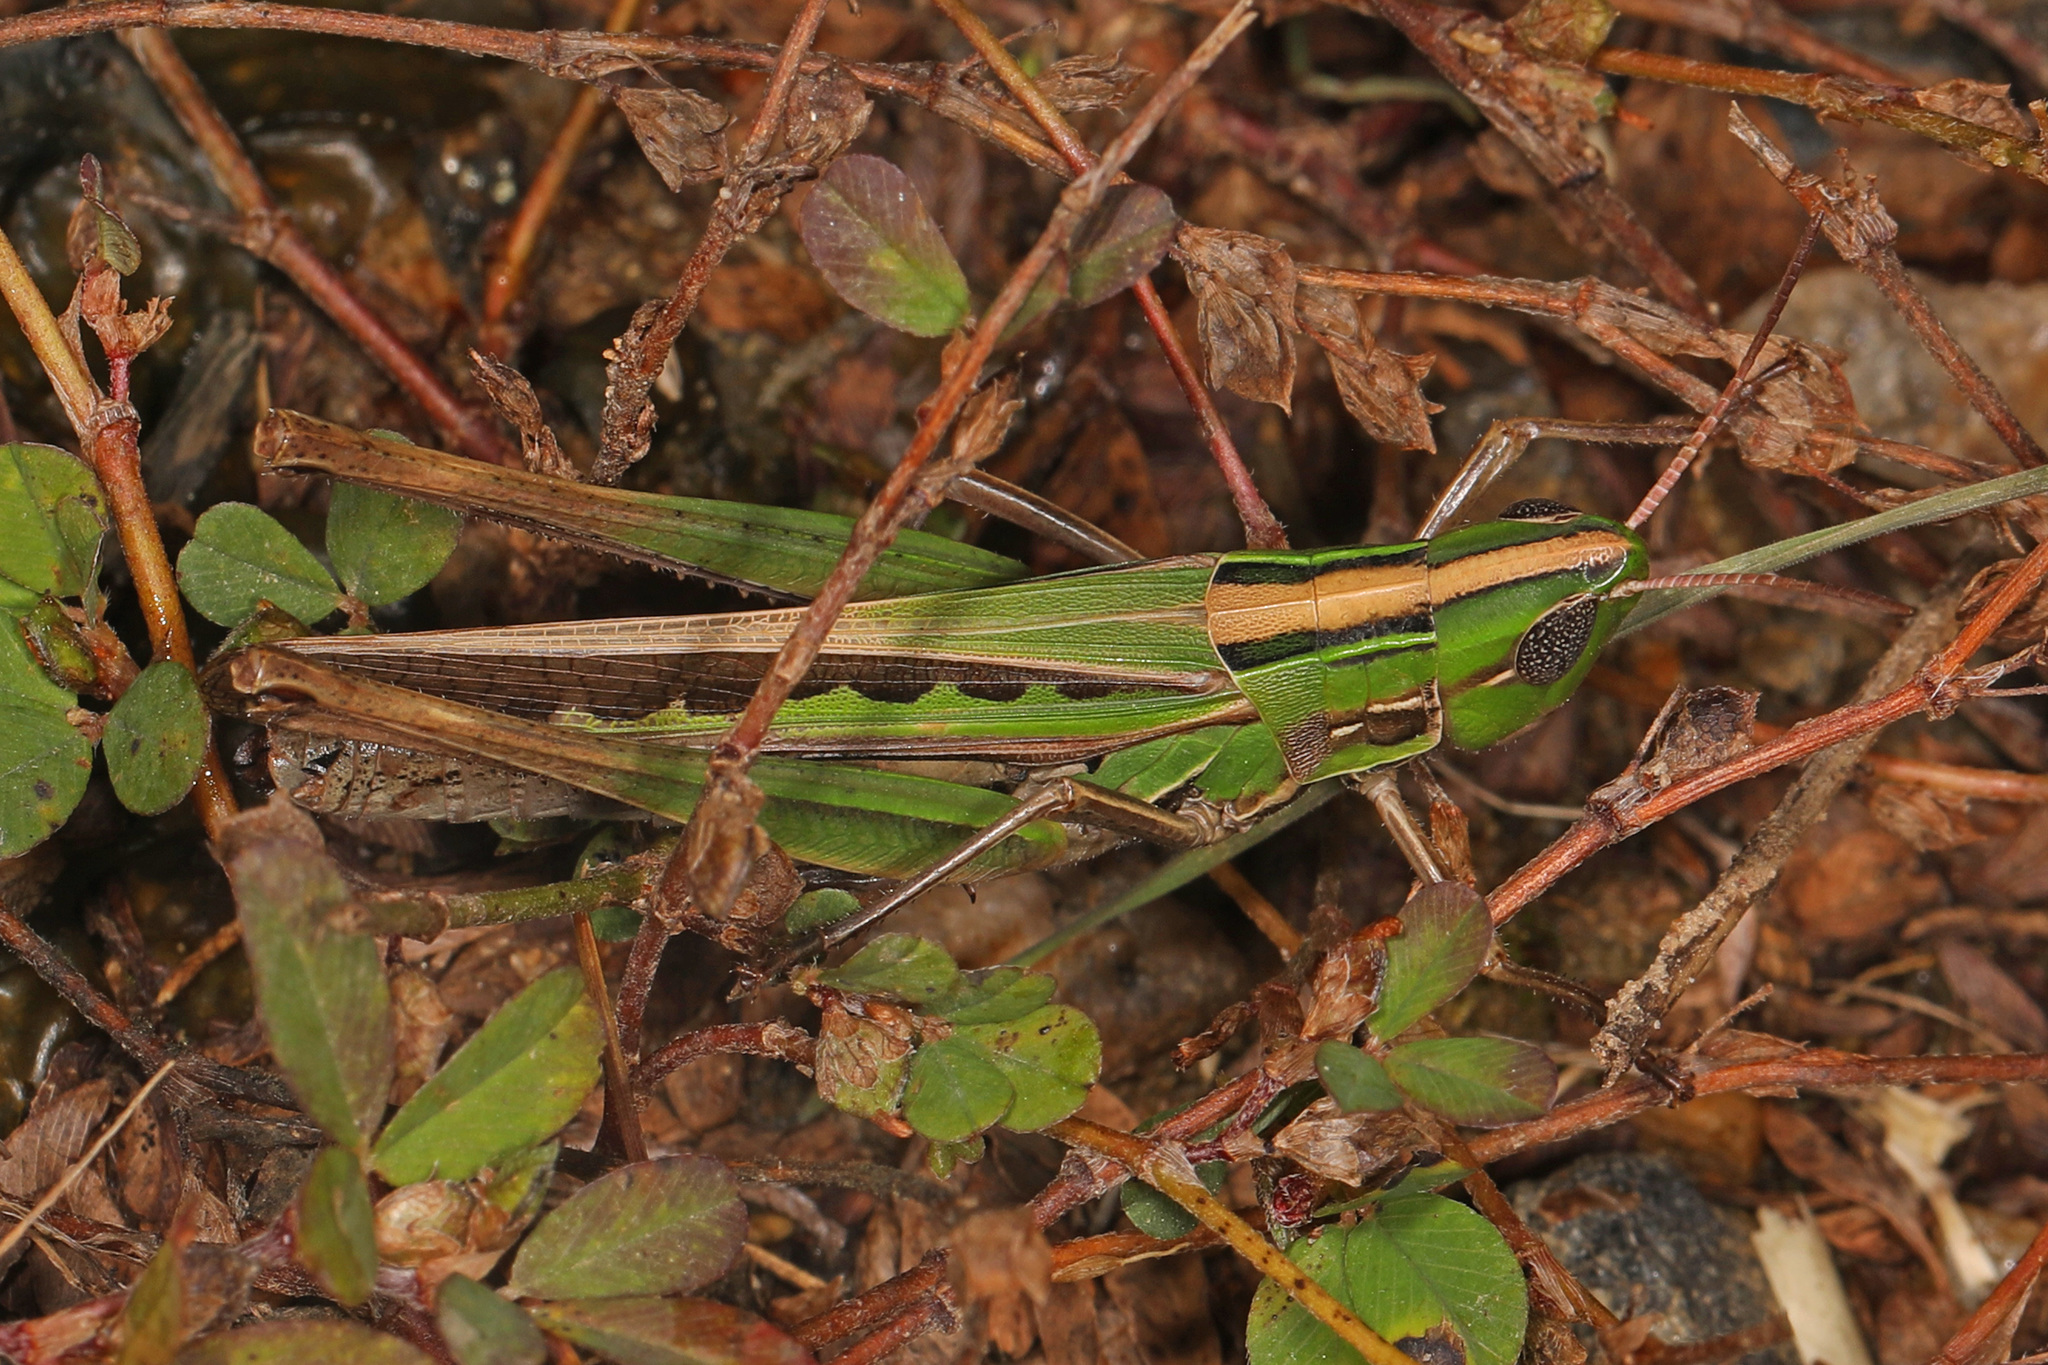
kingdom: Animalia
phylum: Arthropoda
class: Insecta
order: Orthoptera
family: Acrididae
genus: Syrbula
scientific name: Syrbula admirabilis
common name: Handsome grasshopper
